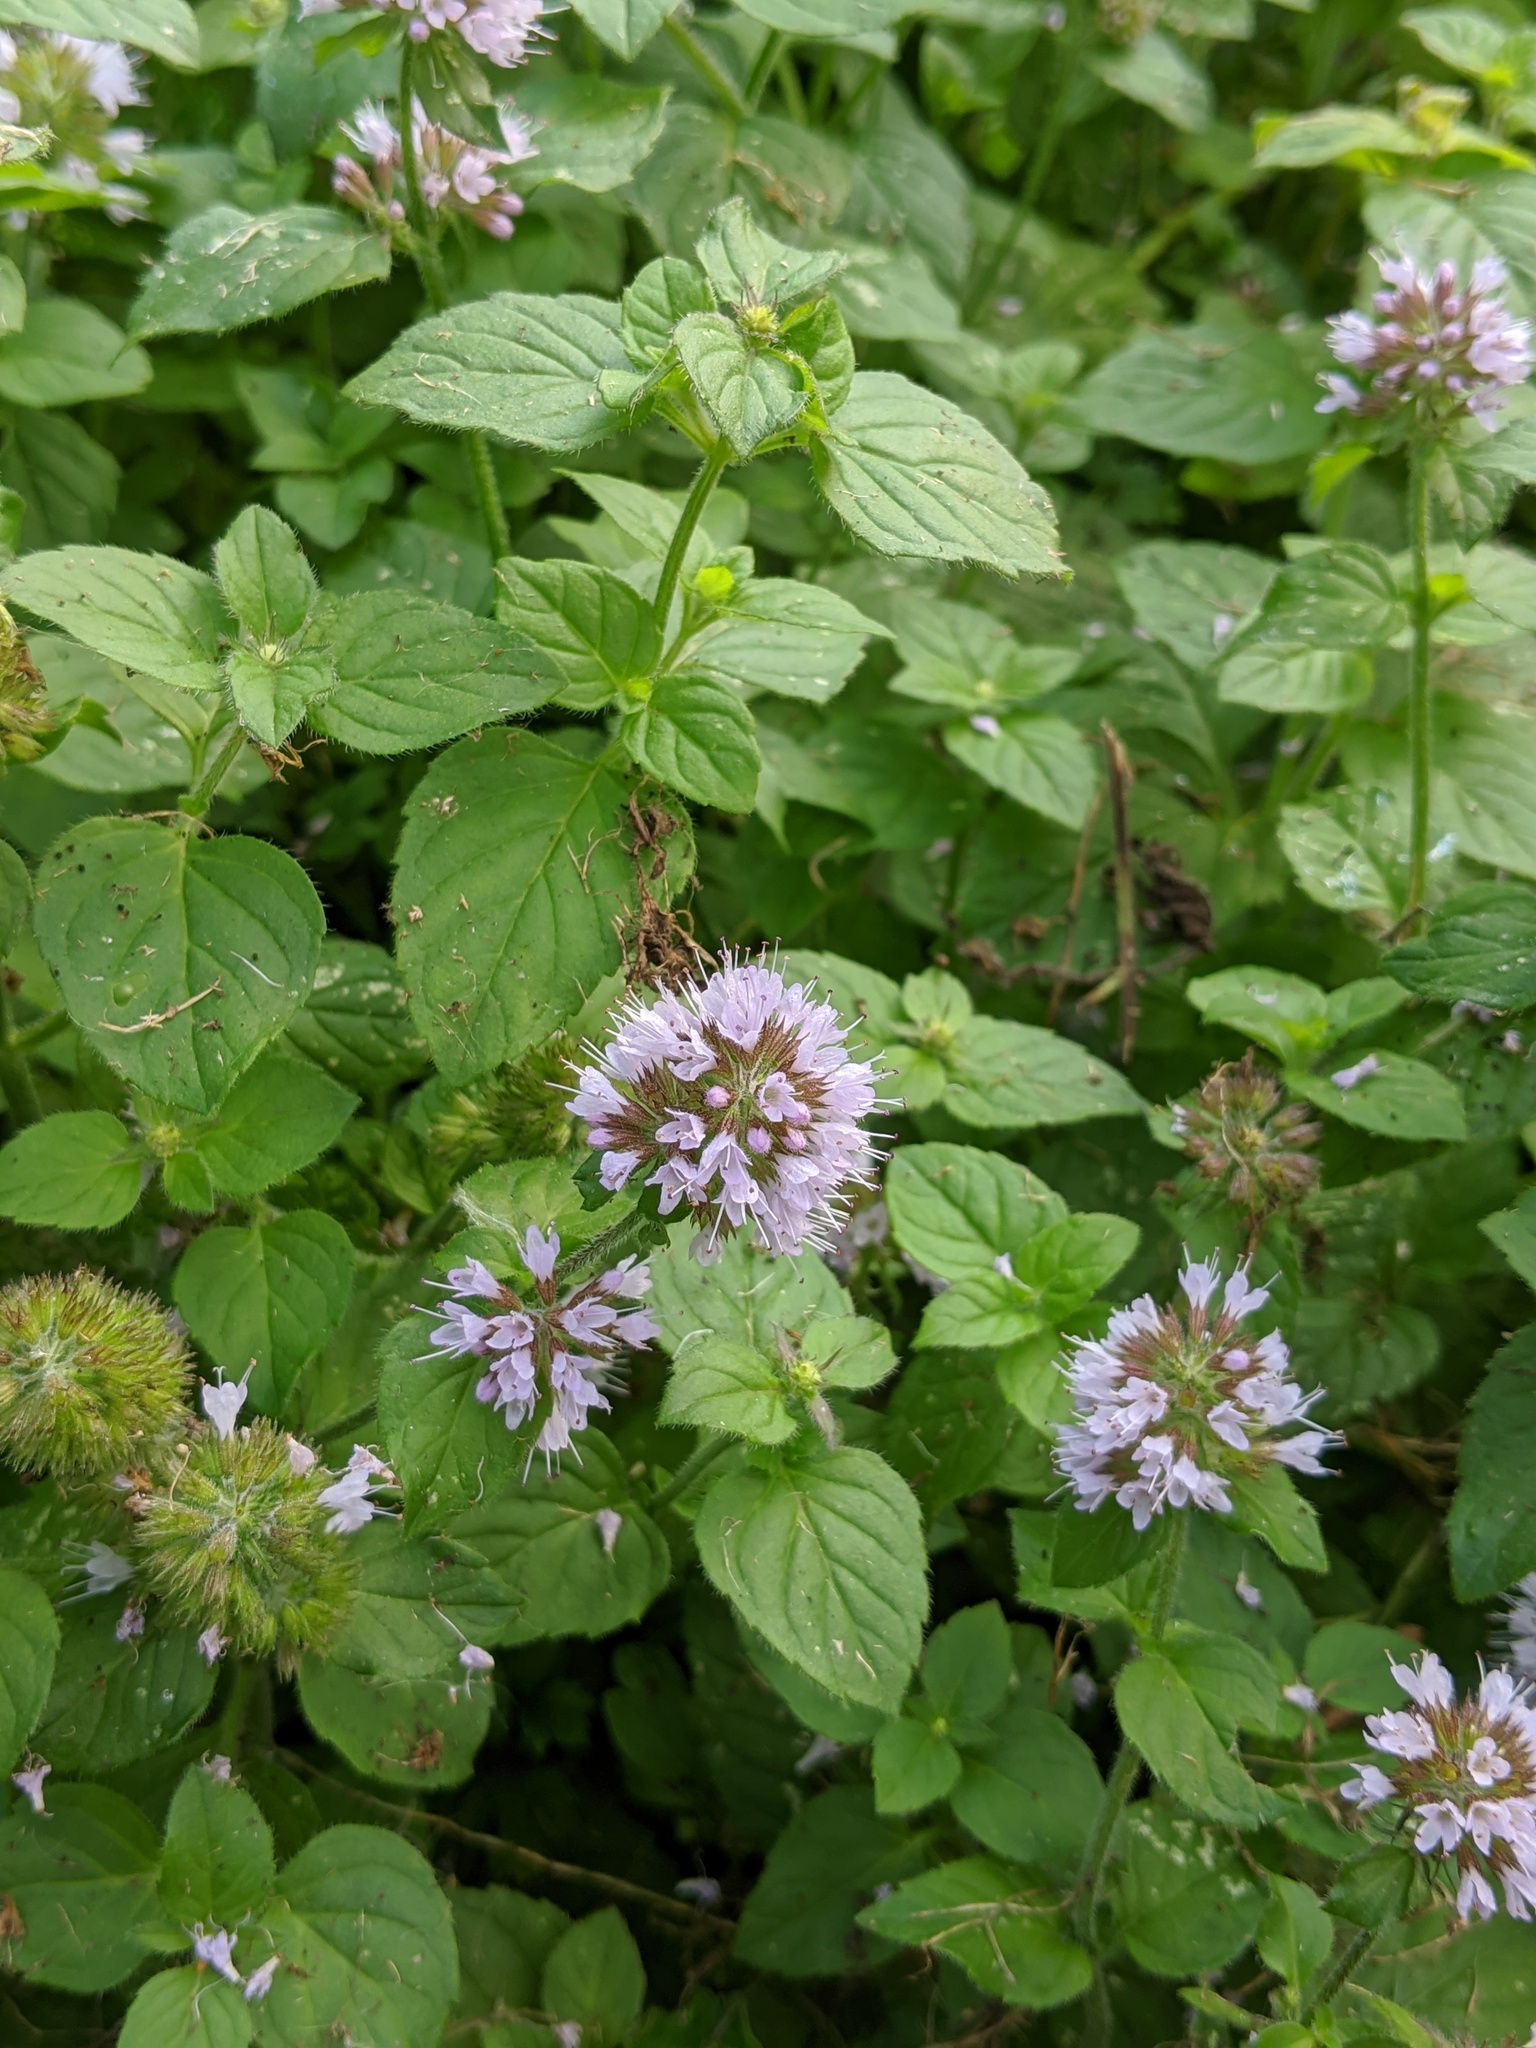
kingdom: Plantae
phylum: Tracheophyta
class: Magnoliopsida
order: Lamiales
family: Lamiaceae
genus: Mentha
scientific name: Mentha aquatica
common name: Water mint
